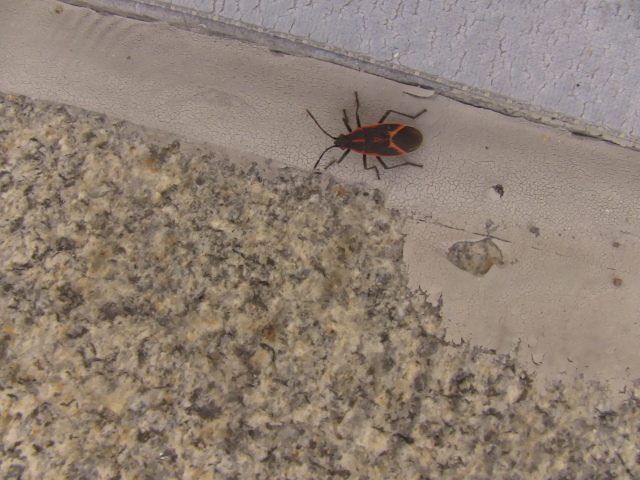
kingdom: Animalia
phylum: Arthropoda
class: Insecta
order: Hemiptera
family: Rhopalidae
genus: Boisea
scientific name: Boisea trivittata
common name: Boxelder bug
